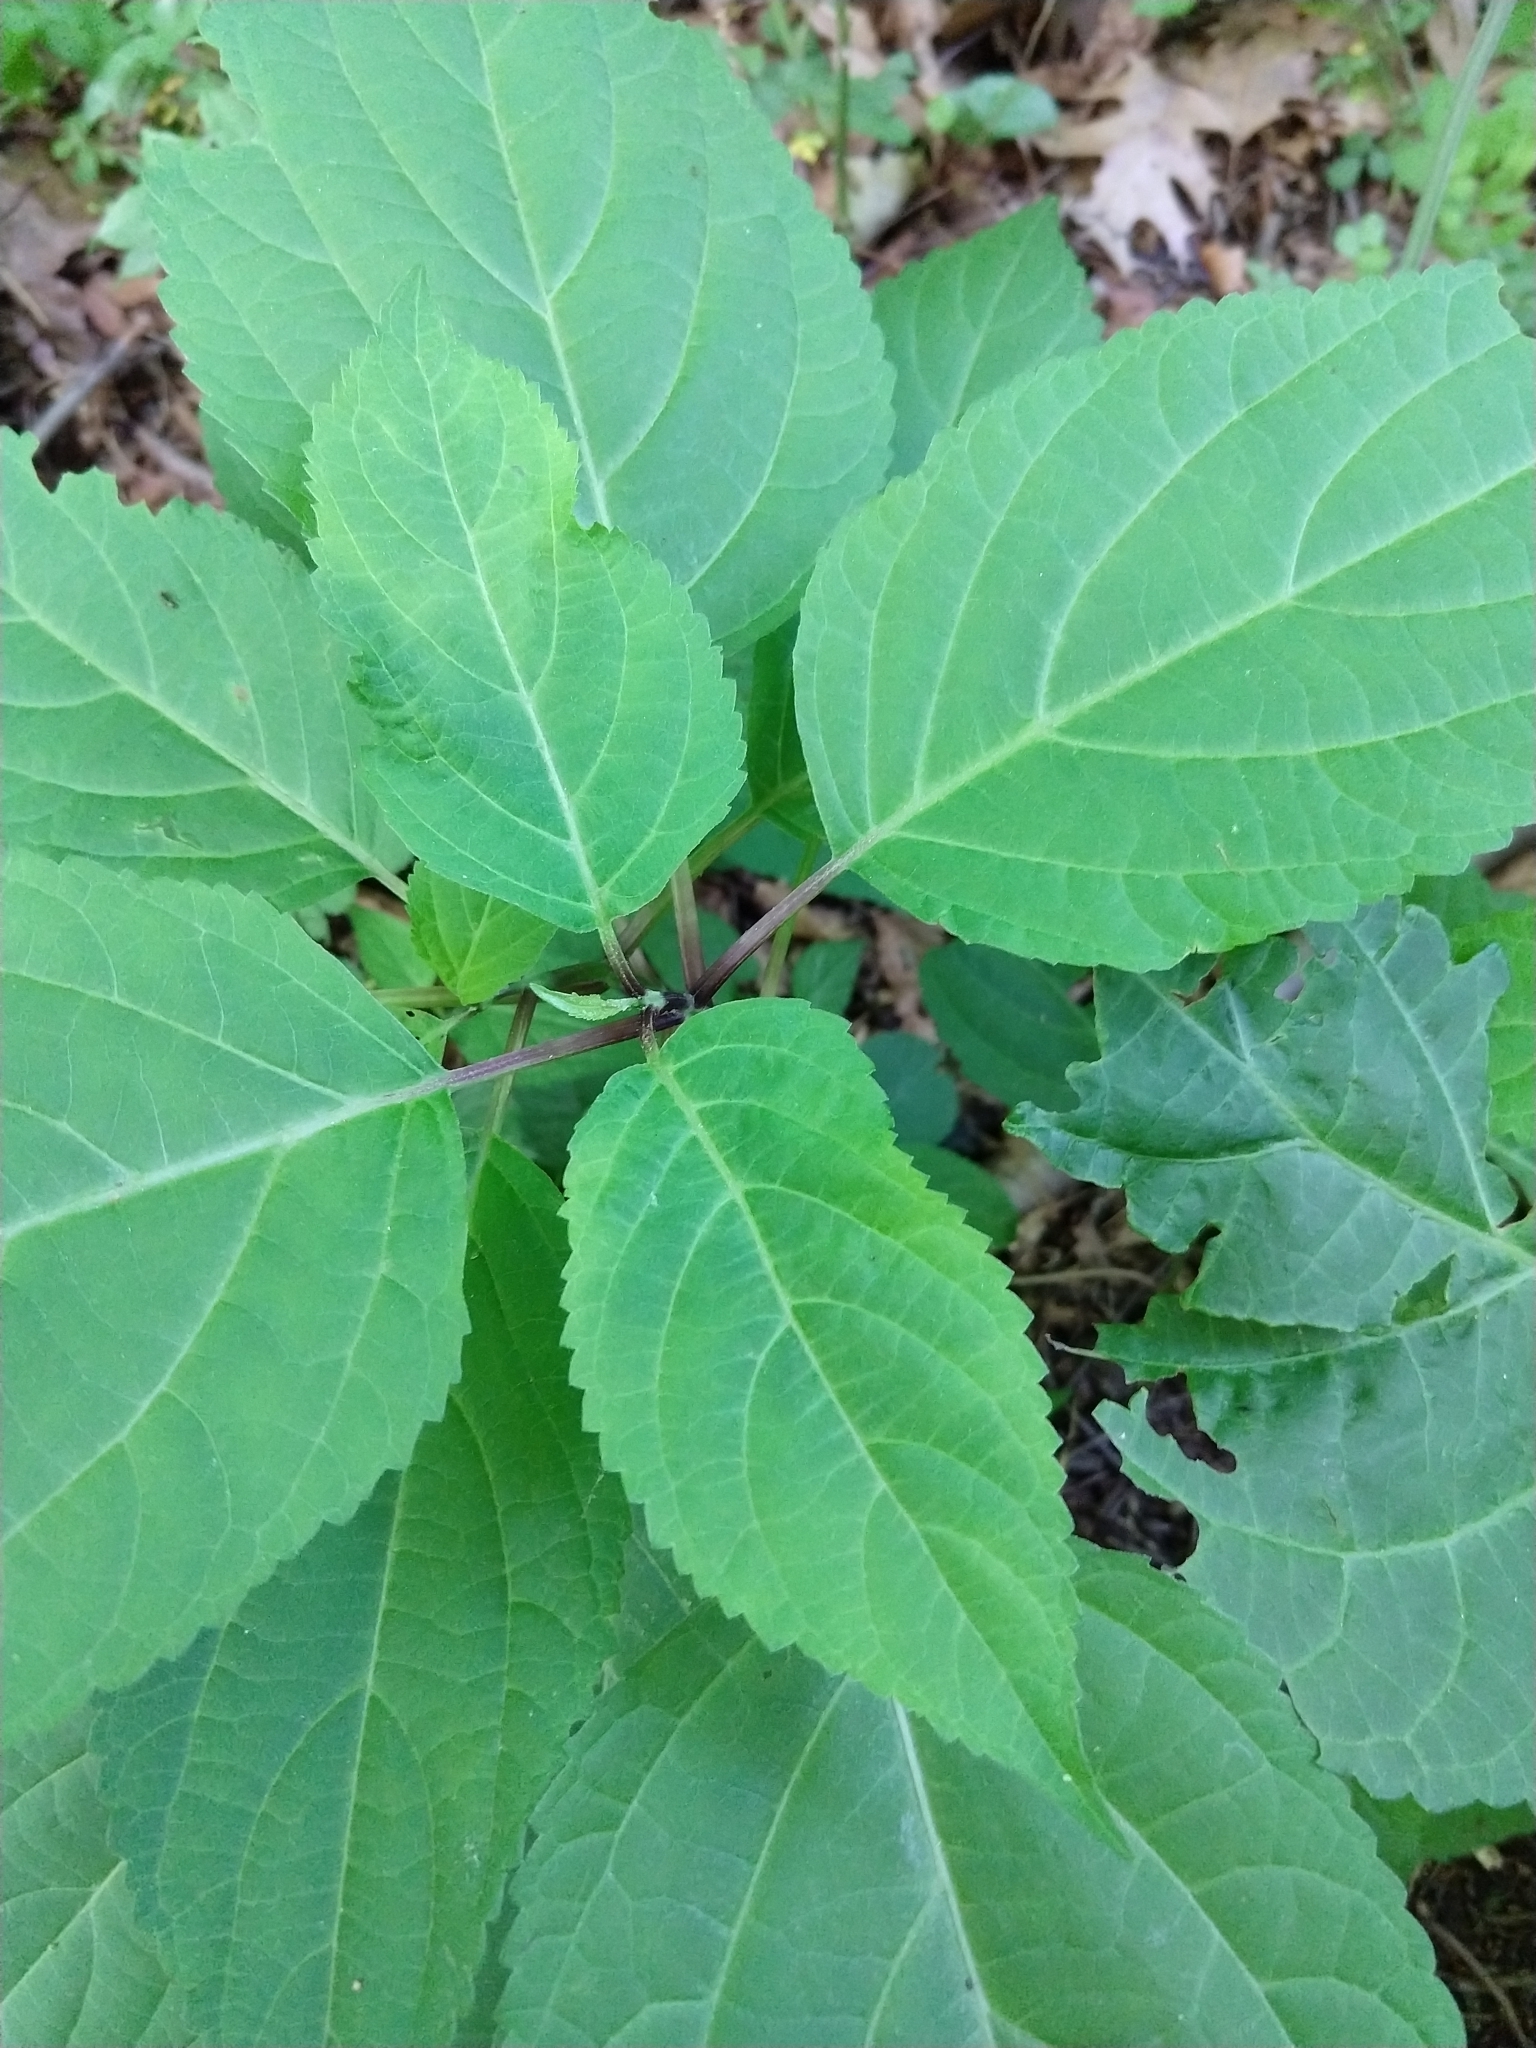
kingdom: Plantae
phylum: Tracheophyta
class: Magnoliopsida
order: Lamiales
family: Lamiaceae
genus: Collinsonia
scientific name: Collinsonia canadensis
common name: Northern horsebalm
